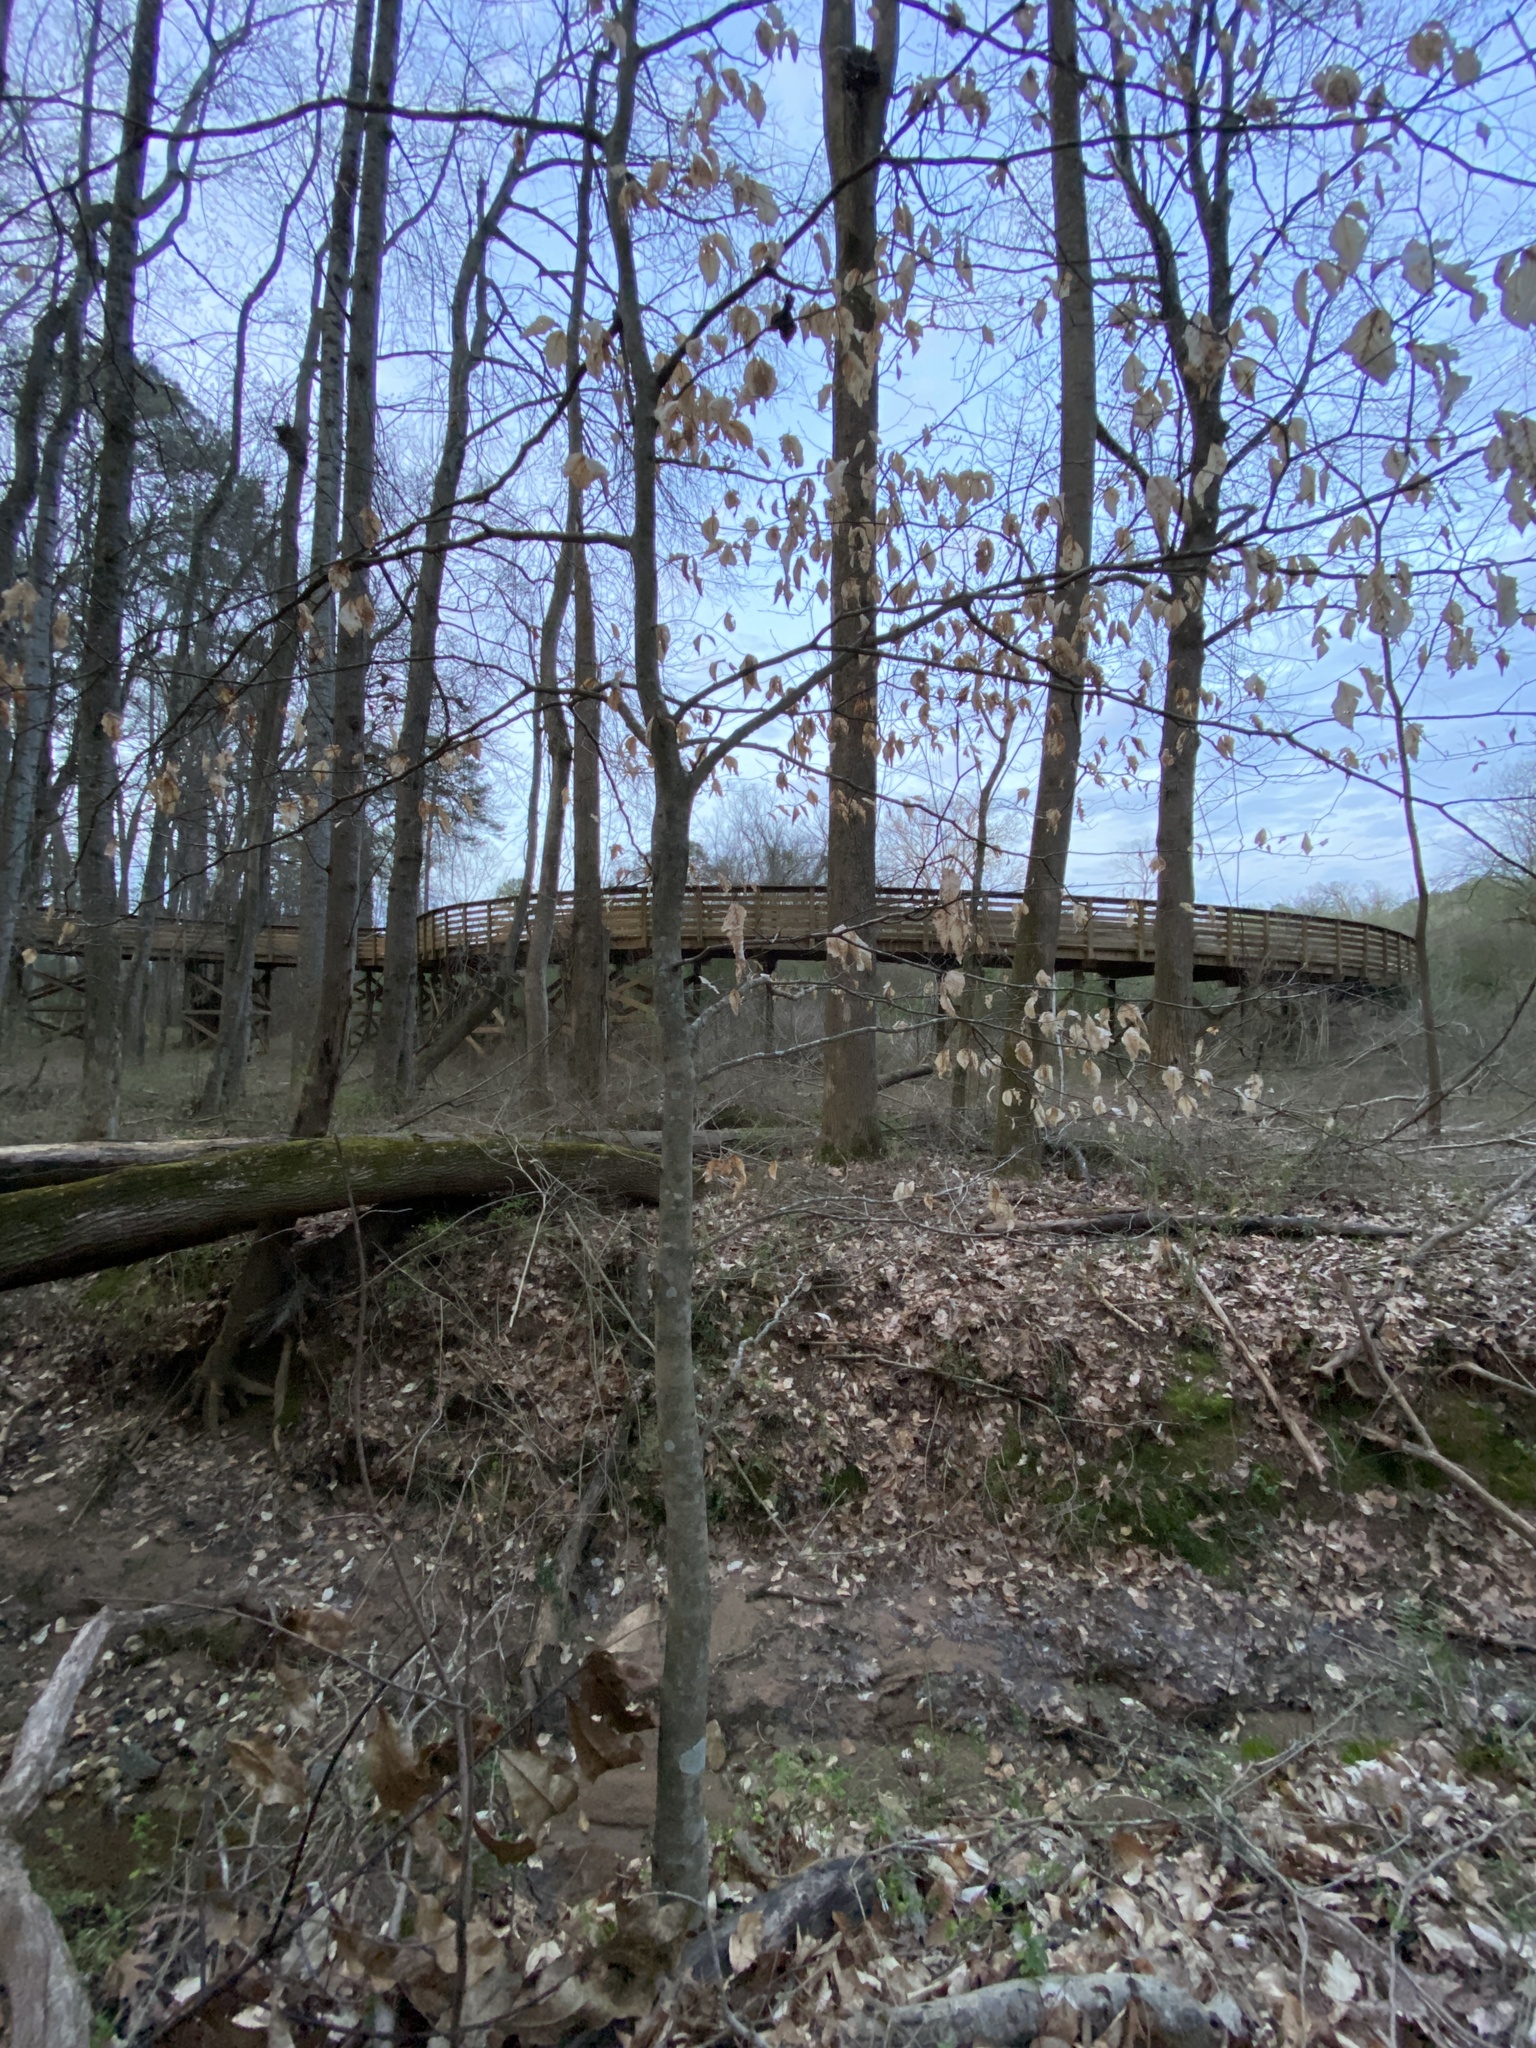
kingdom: Plantae
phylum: Tracheophyta
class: Magnoliopsida
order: Fagales
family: Fagaceae
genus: Fagus
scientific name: Fagus grandifolia
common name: American beech
